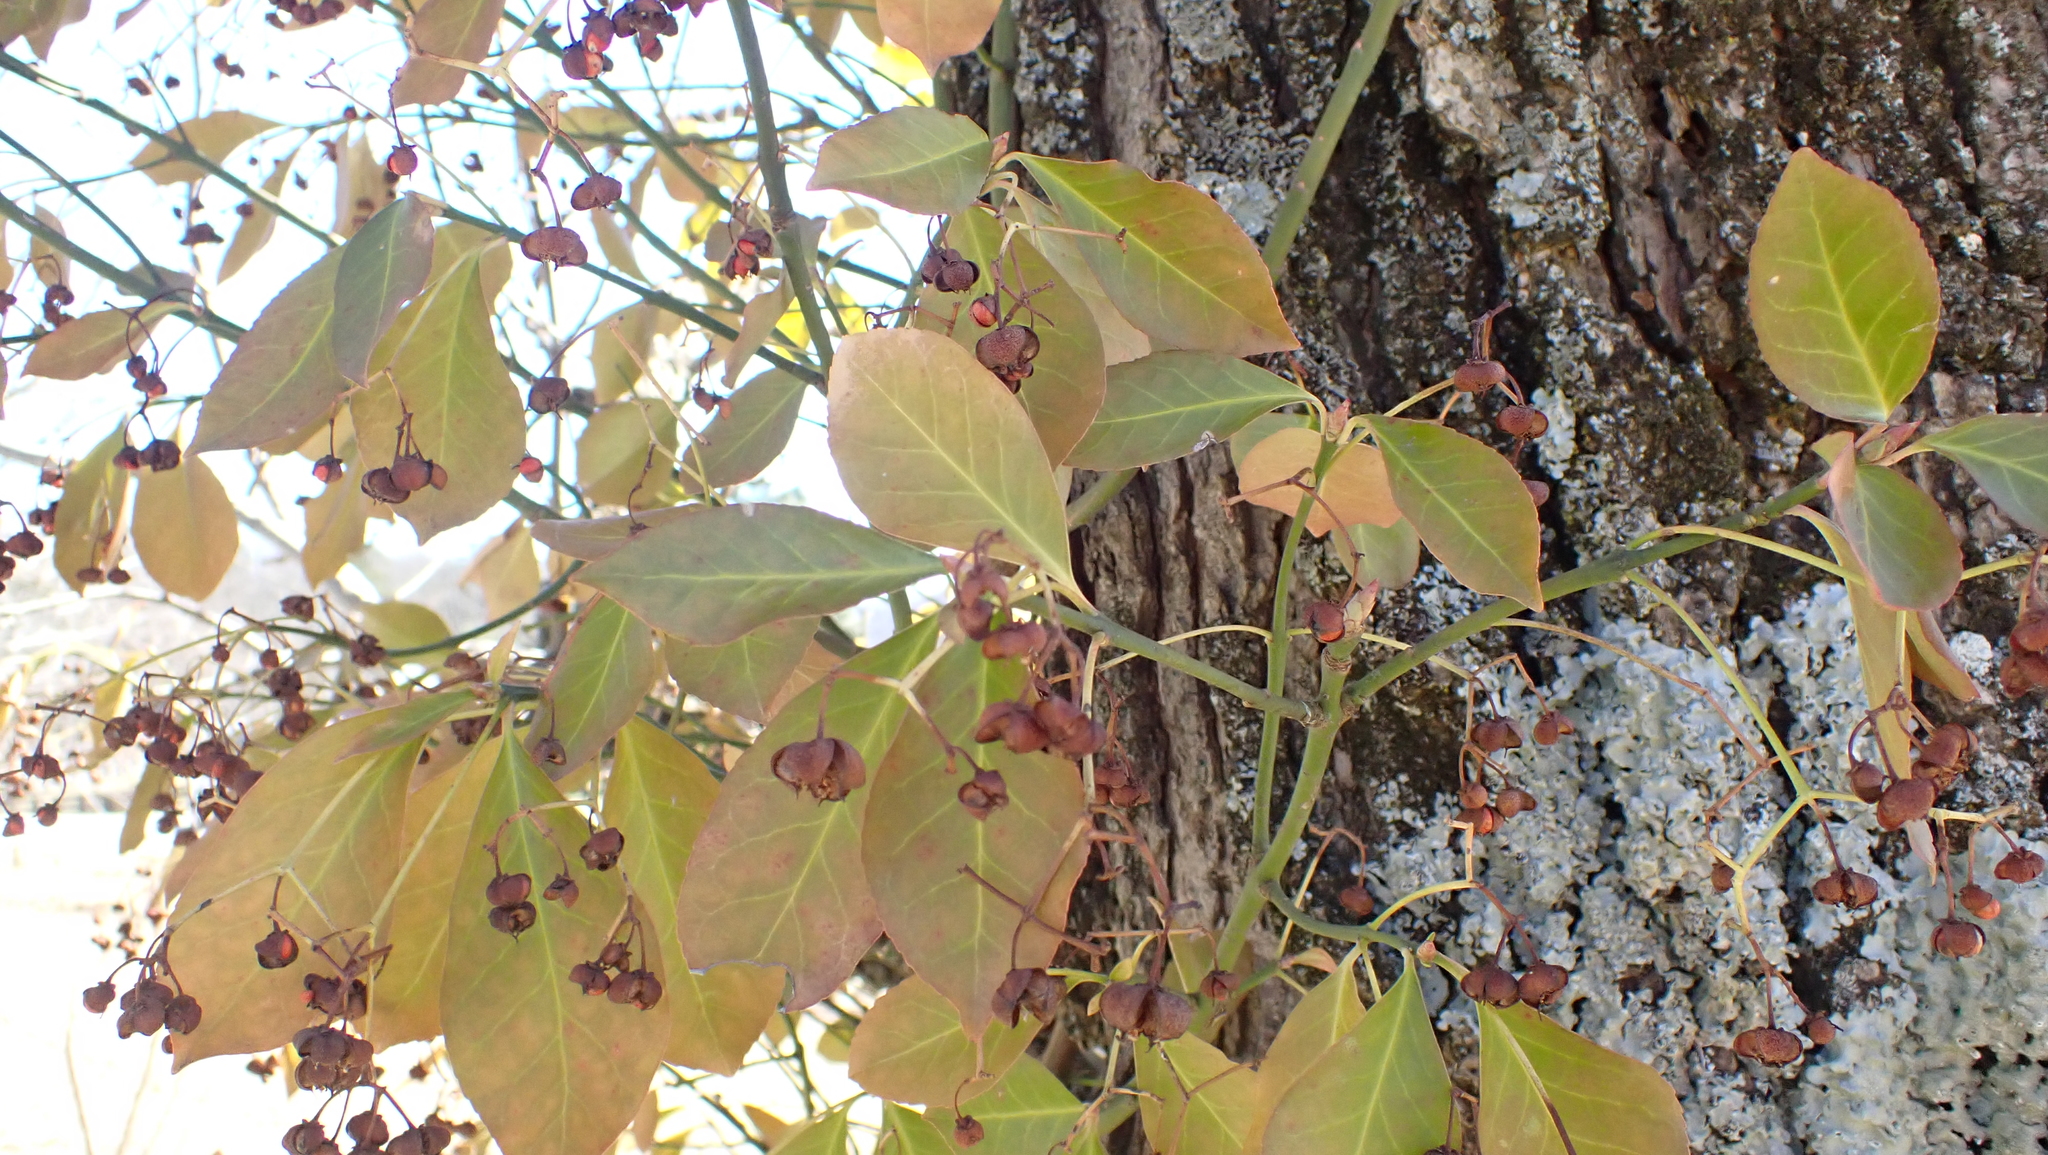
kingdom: Plantae
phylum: Tracheophyta
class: Magnoliopsida
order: Celastrales
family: Celastraceae
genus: Euonymus
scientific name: Euonymus fortunei
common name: Climbing euonymus
